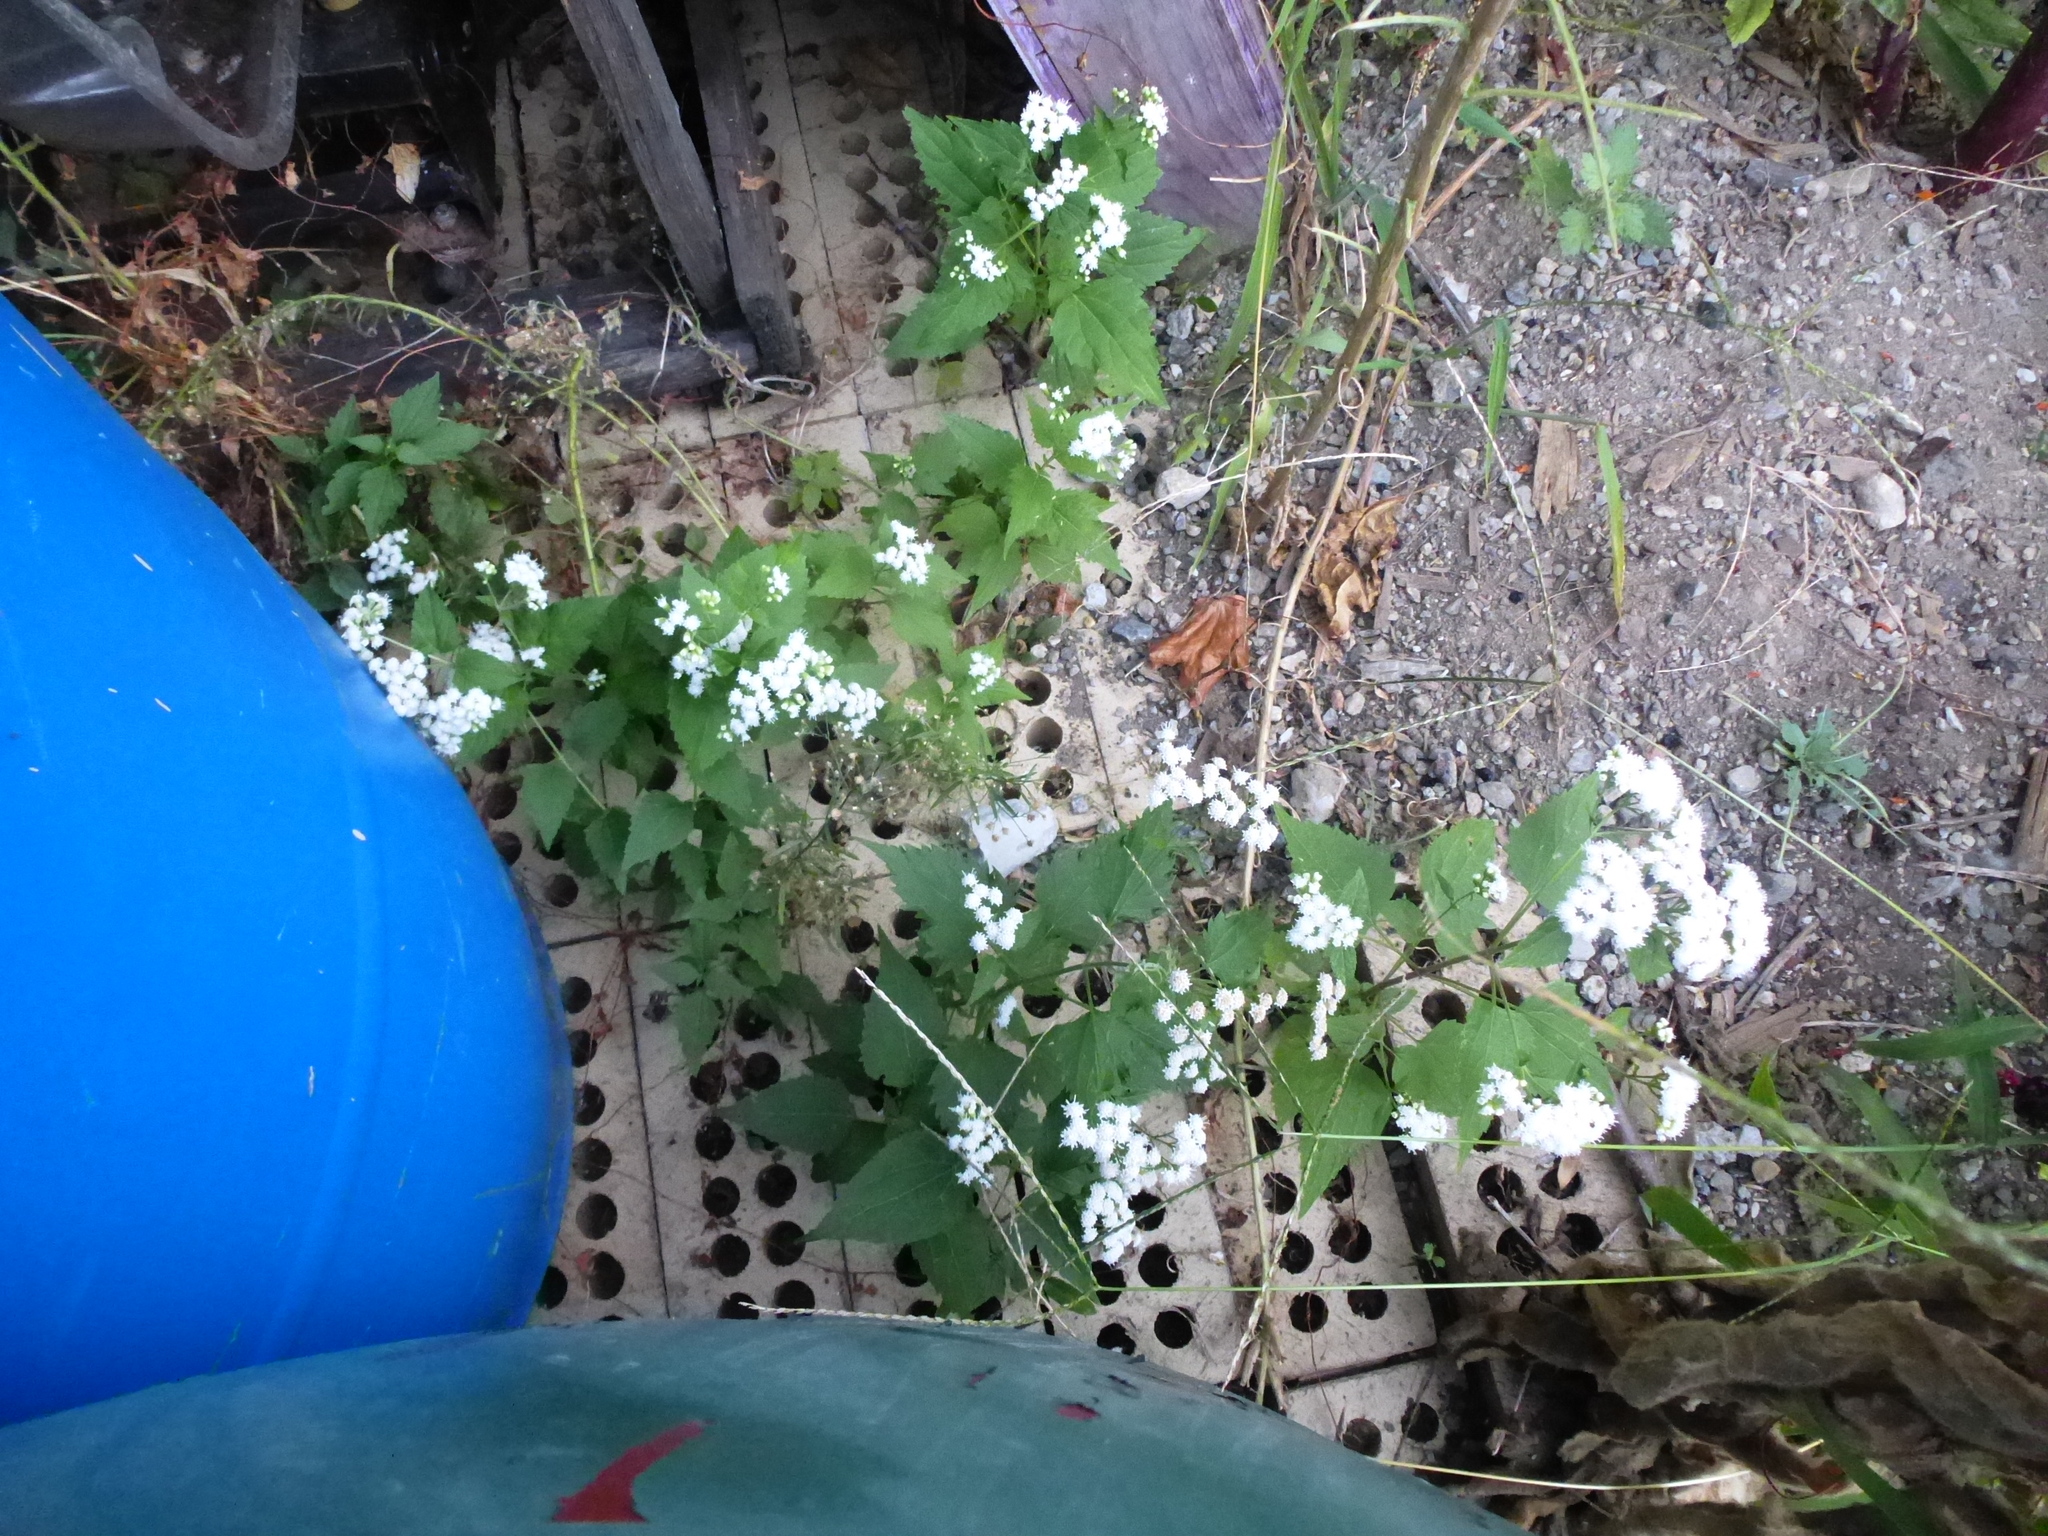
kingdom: Plantae
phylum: Tracheophyta
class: Magnoliopsida
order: Asterales
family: Asteraceae
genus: Ageratina
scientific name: Ageratina altissima
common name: White snakeroot
